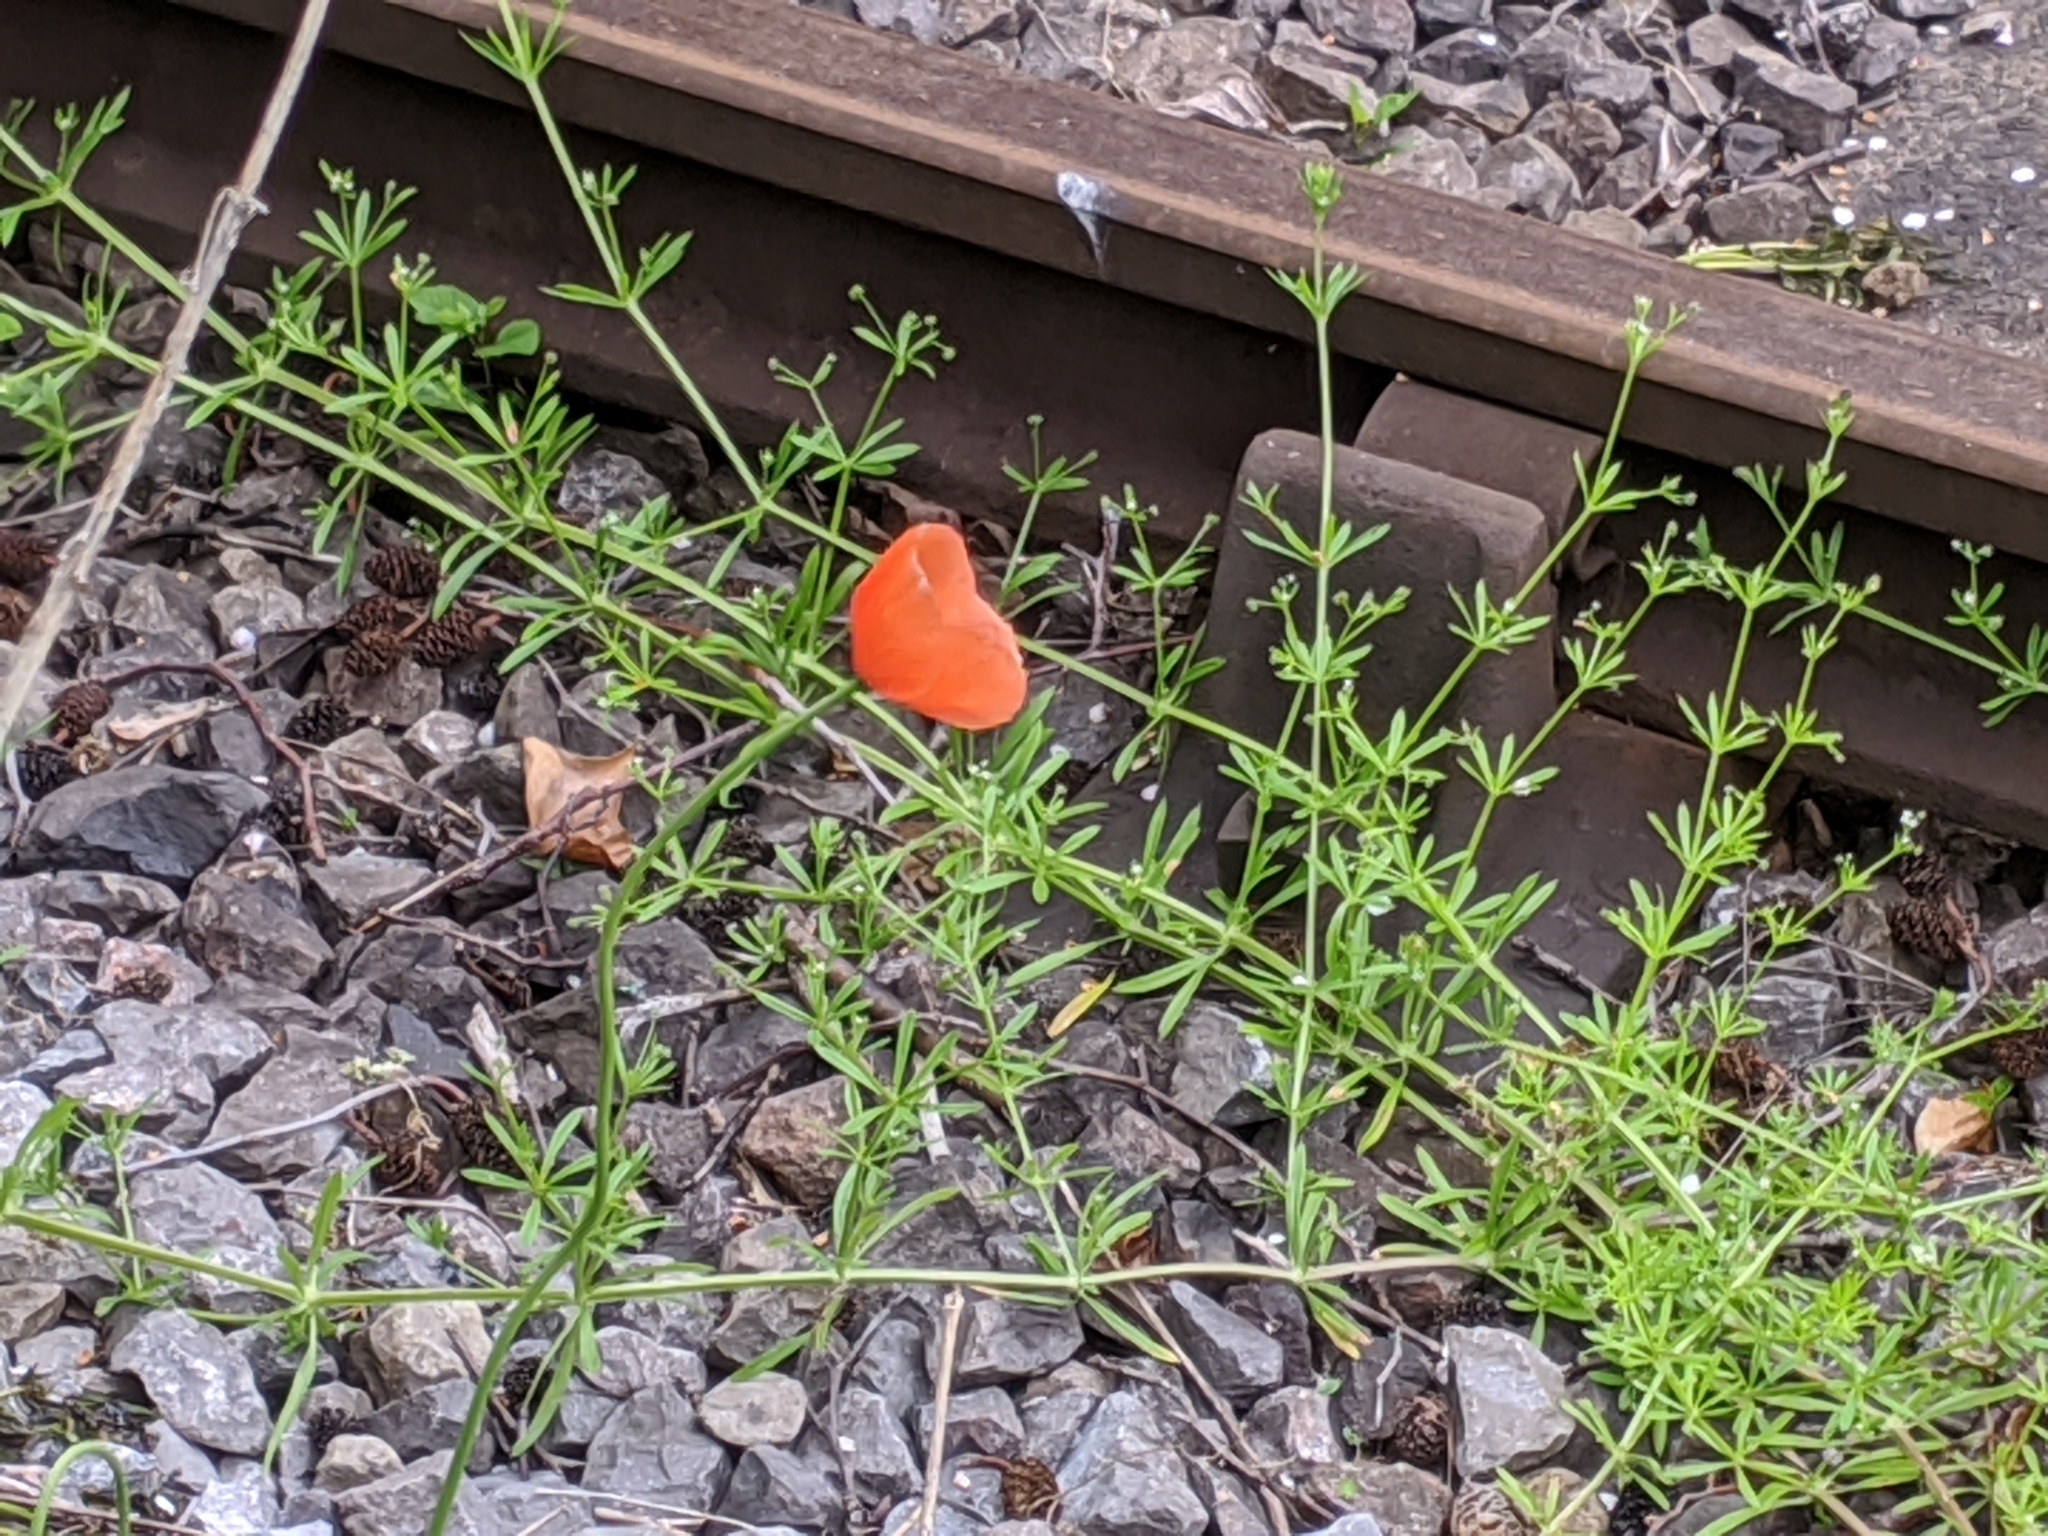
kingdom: Plantae
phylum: Tracheophyta
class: Magnoliopsida
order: Ranunculales
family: Papaveraceae
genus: Papaver
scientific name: Papaver dubium
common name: Long-headed poppy
